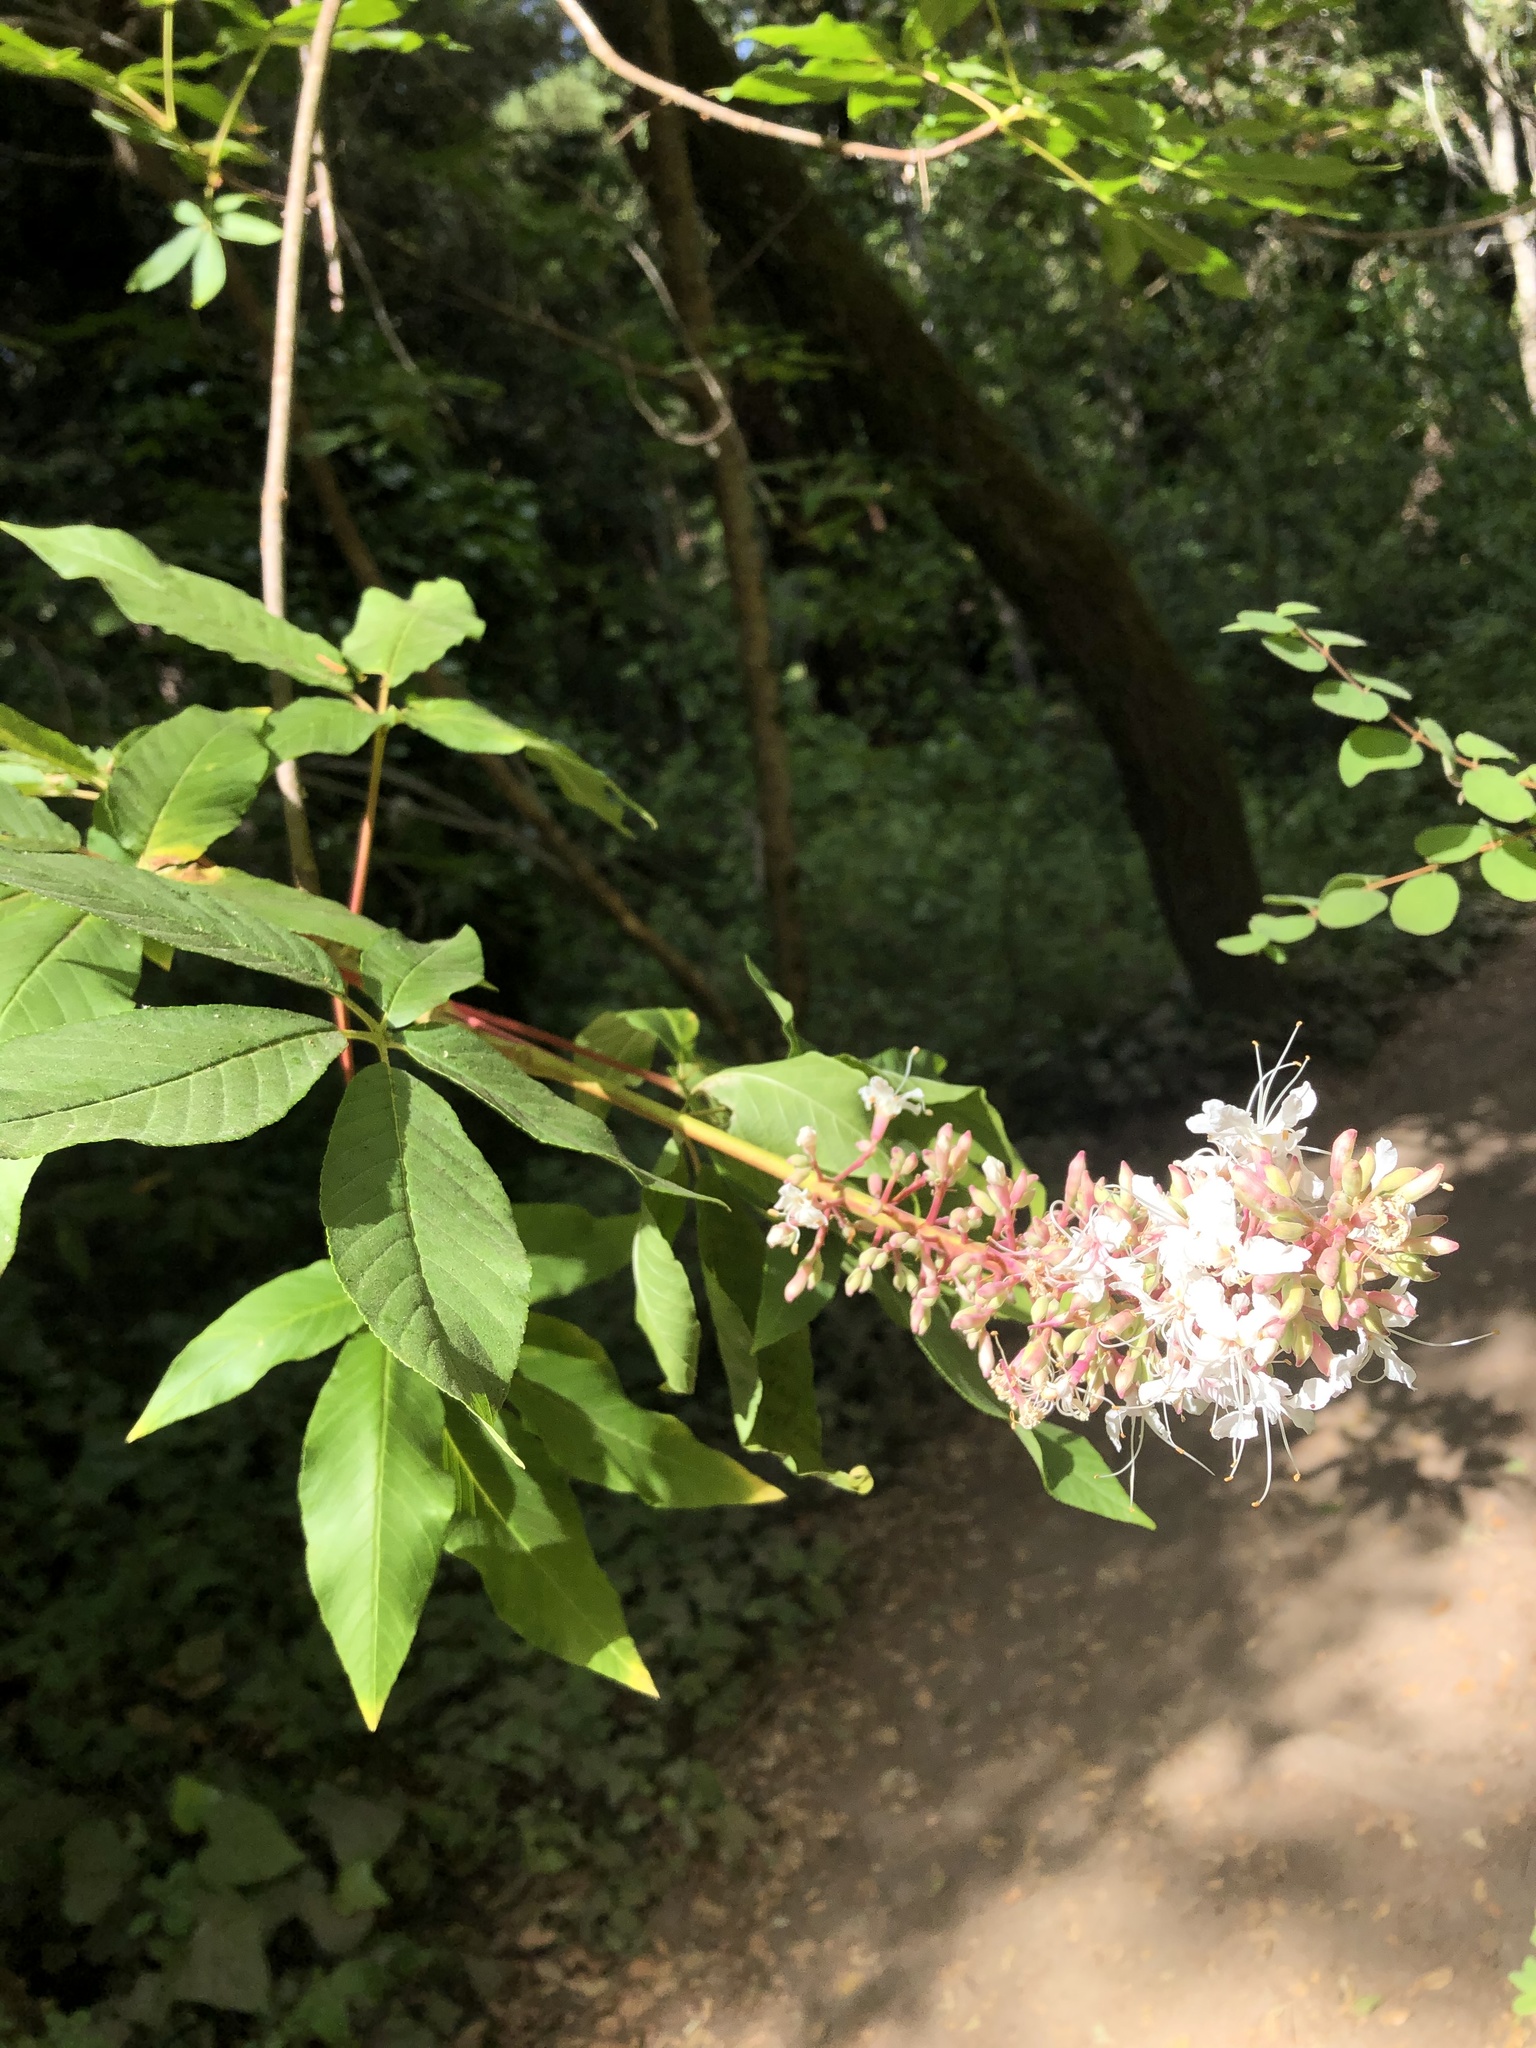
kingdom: Plantae
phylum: Tracheophyta
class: Magnoliopsida
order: Sapindales
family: Sapindaceae
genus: Aesculus
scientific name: Aesculus californica
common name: California buckeye
